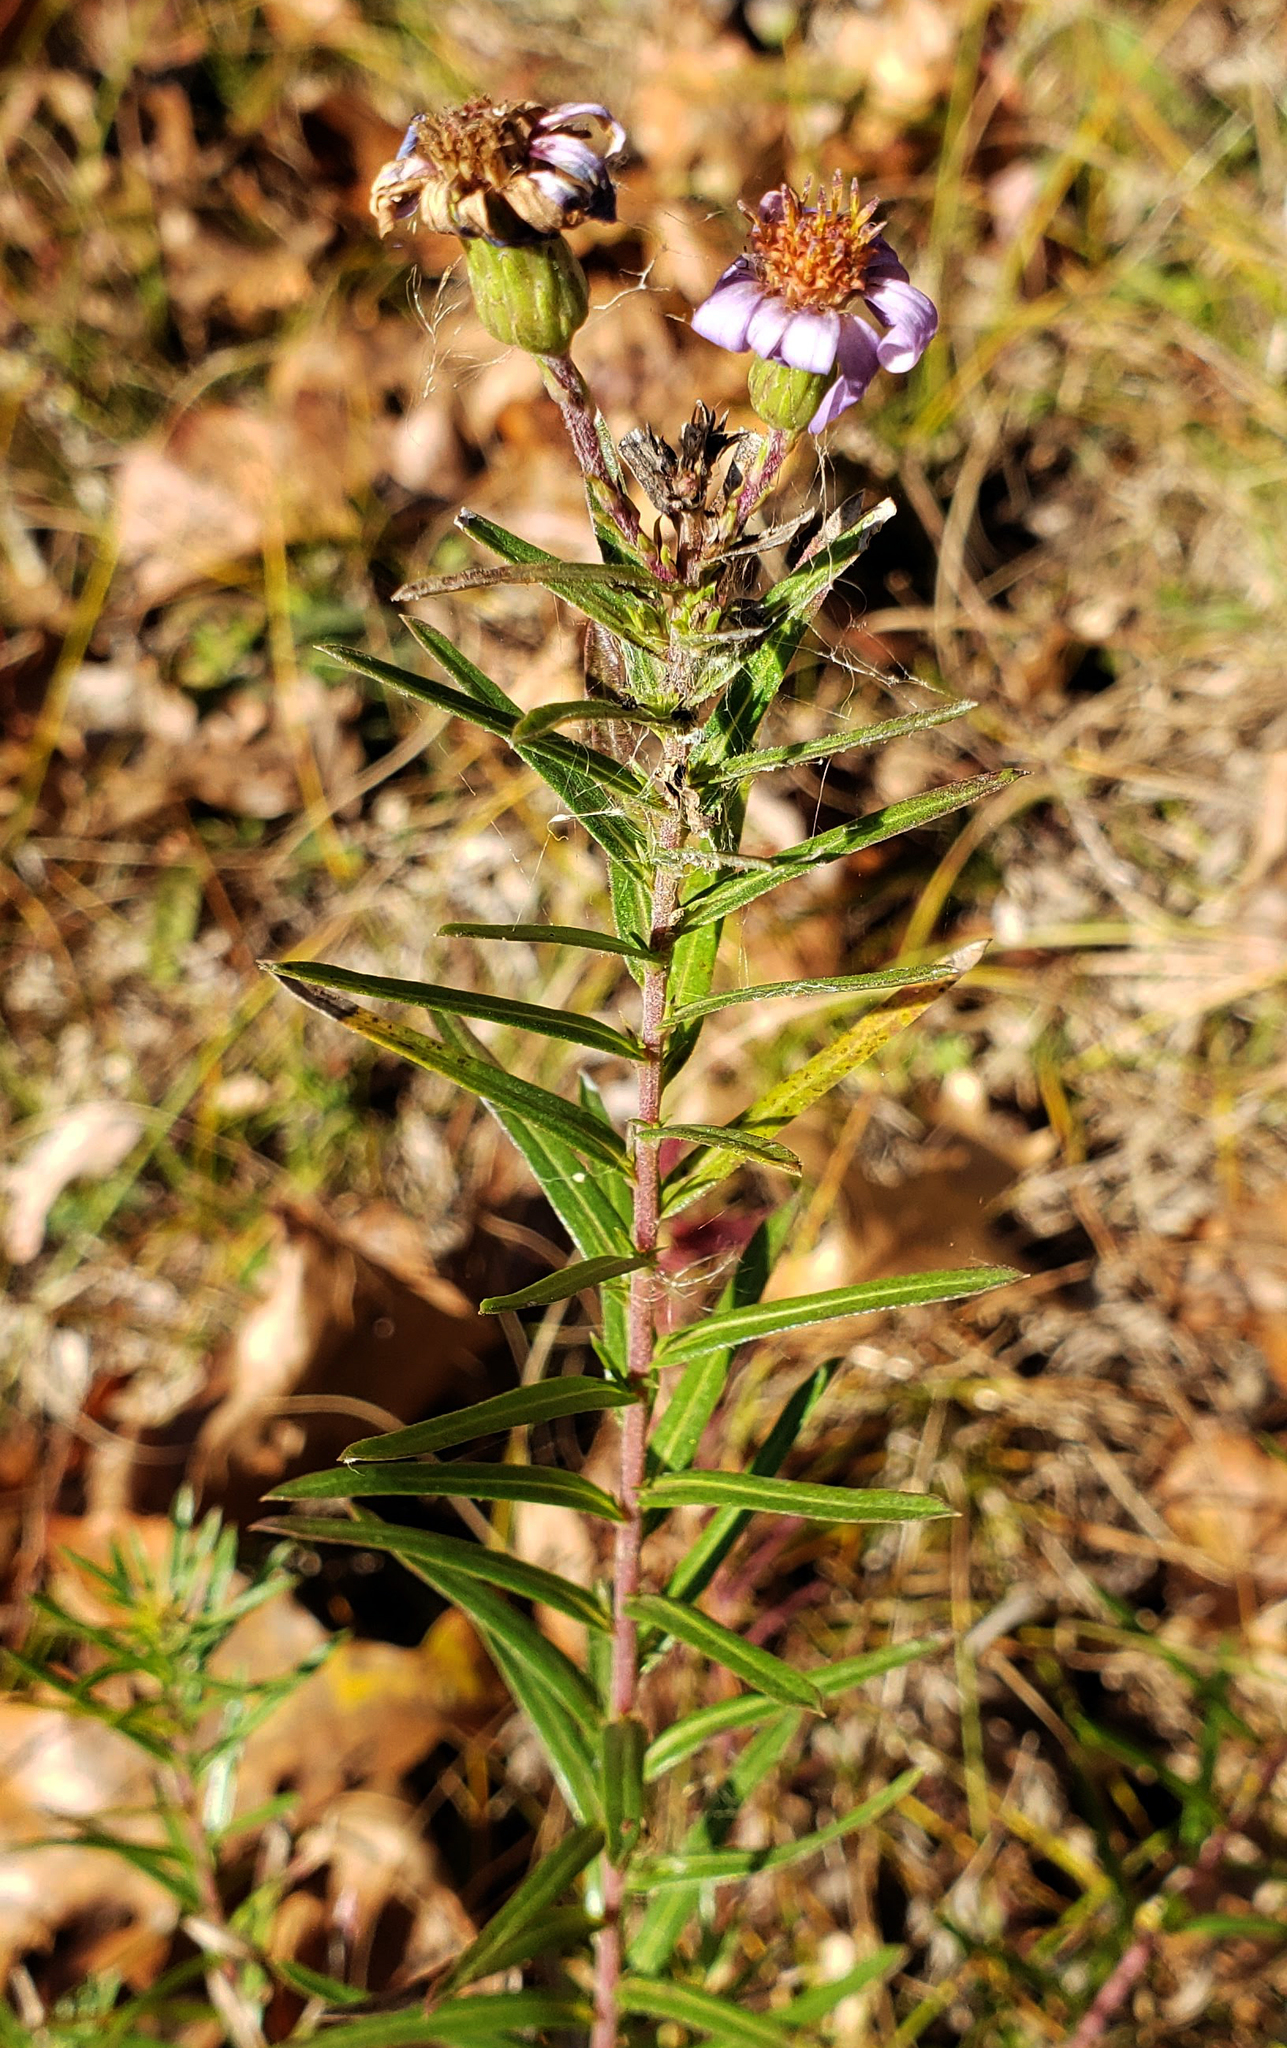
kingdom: Plantae
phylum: Tracheophyta
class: Magnoliopsida
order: Asterales
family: Asteraceae
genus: Ionactis
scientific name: Ionactis linariifolia
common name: Flax-leaf aster
